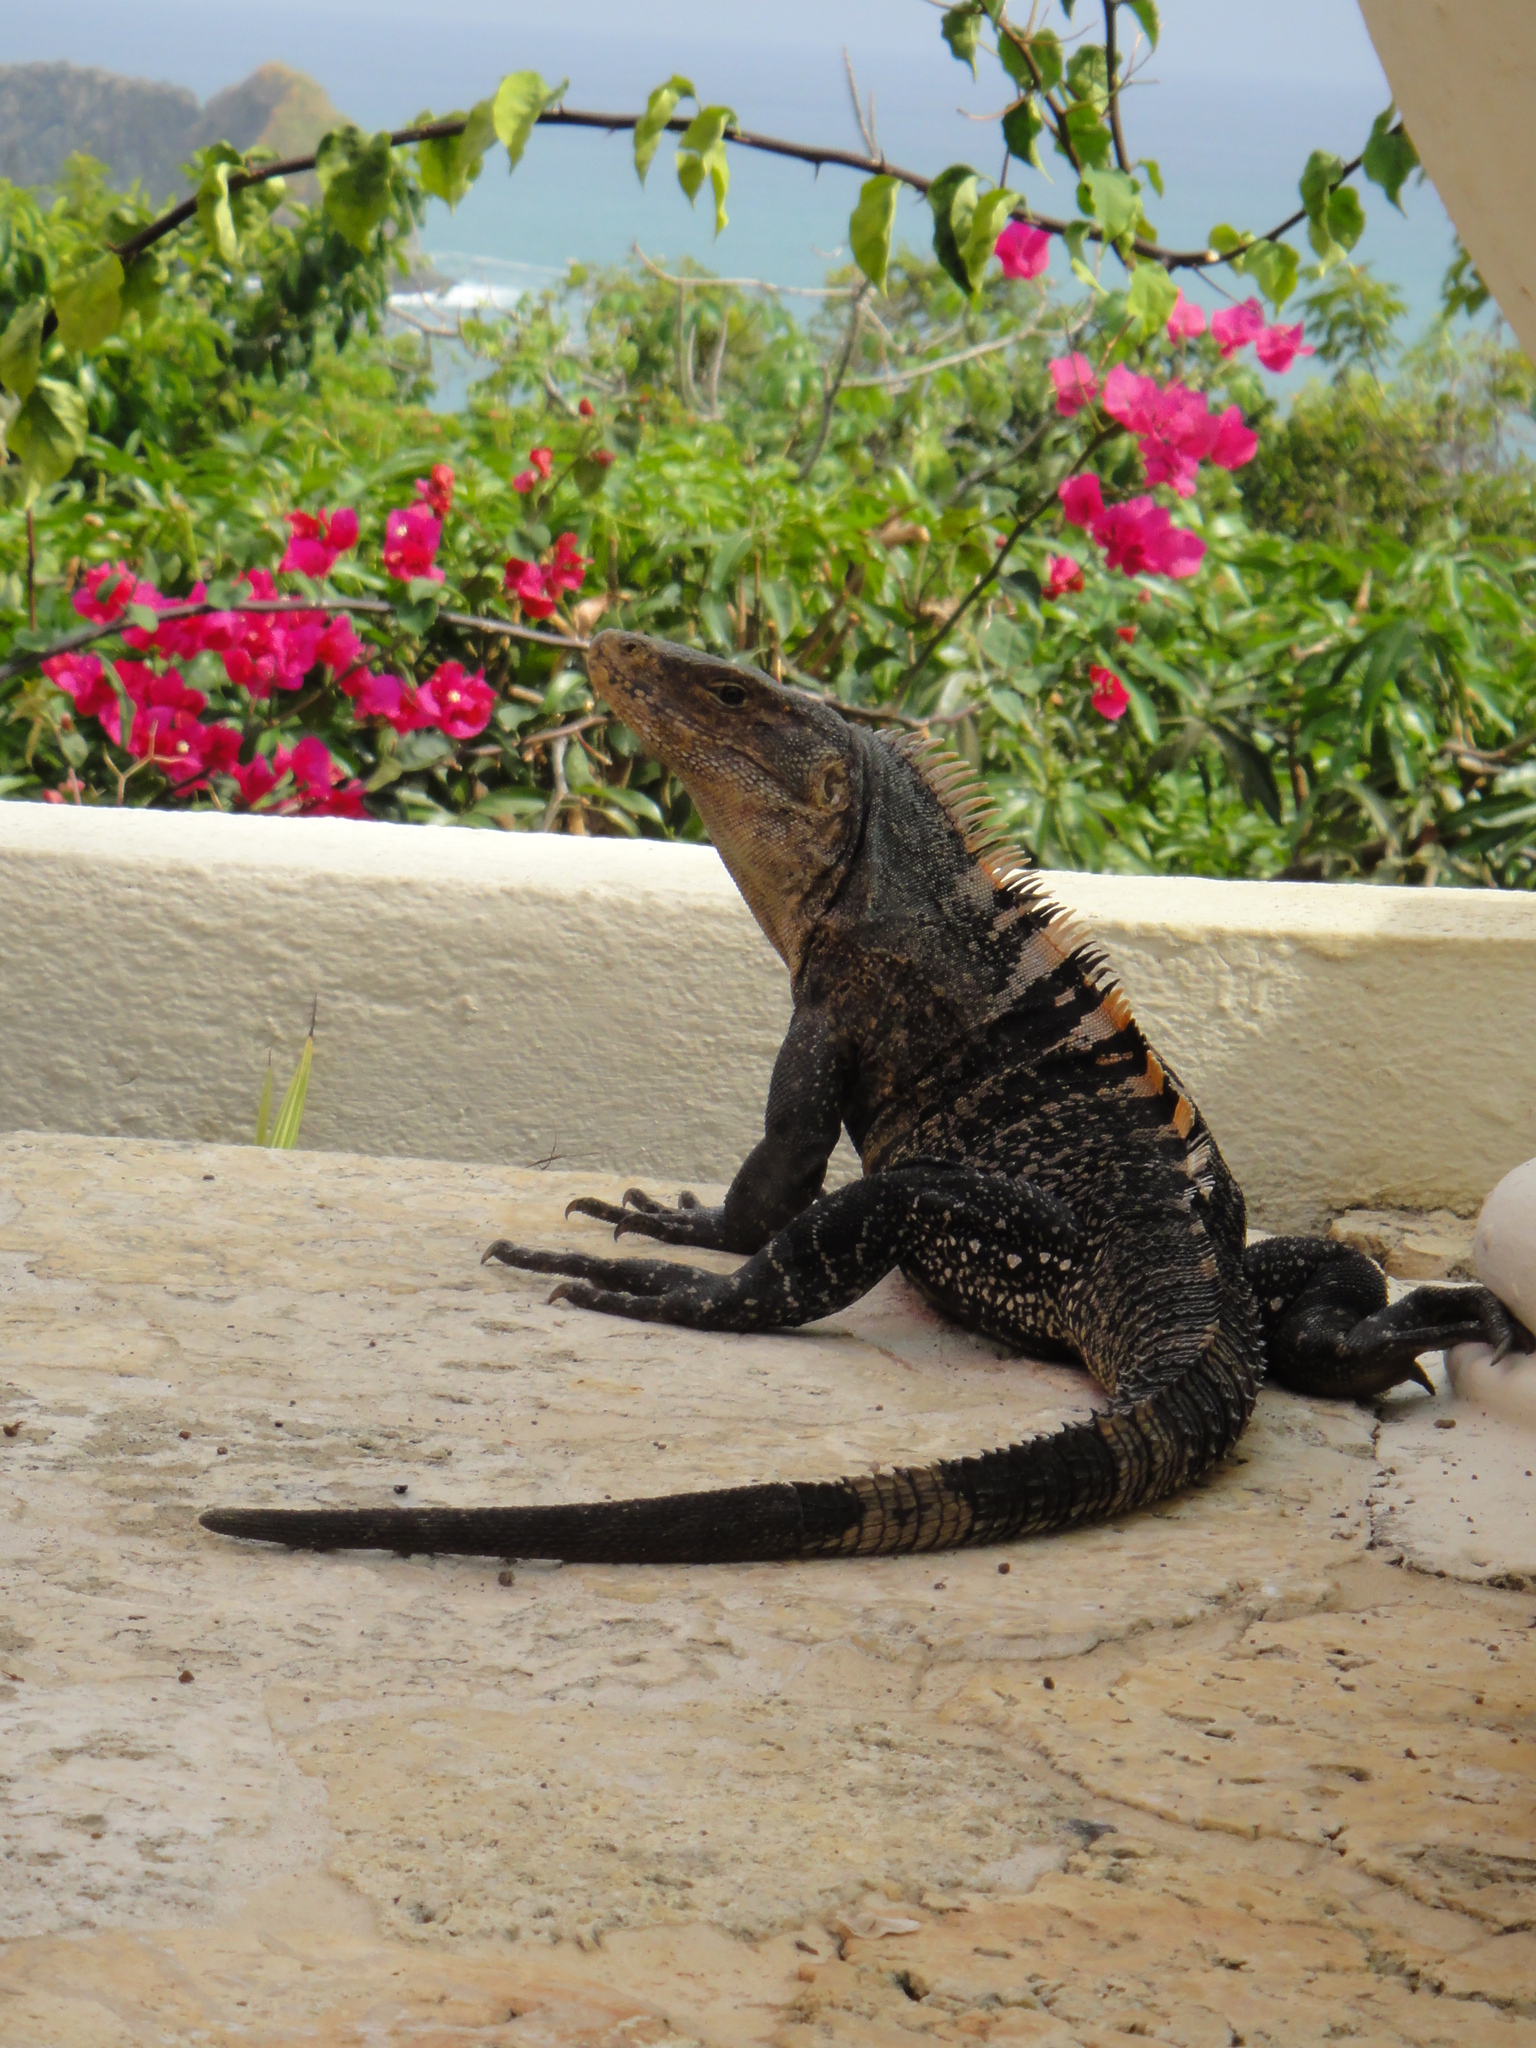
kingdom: Animalia
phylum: Chordata
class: Squamata
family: Iguanidae
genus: Ctenosaura
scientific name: Ctenosaura similis
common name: Black spiny-tailed iguana
